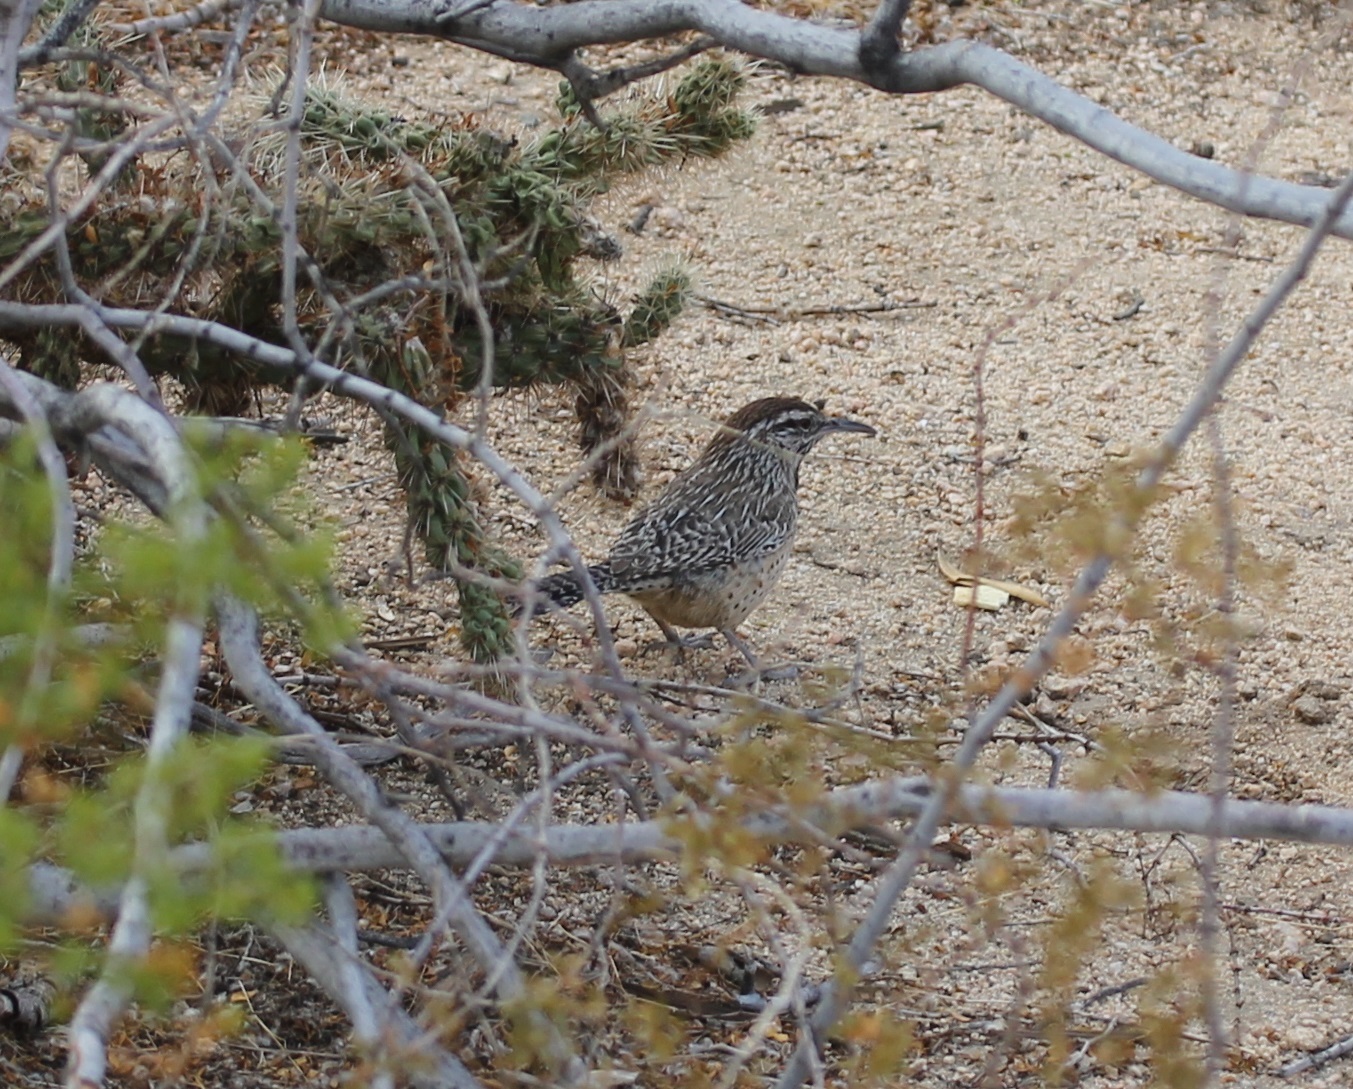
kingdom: Animalia
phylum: Chordata
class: Aves
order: Passeriformes
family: Troglodytidae
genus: Campylorhynchus
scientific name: Campylorhynchus brunneicapillus
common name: Cactus wren
